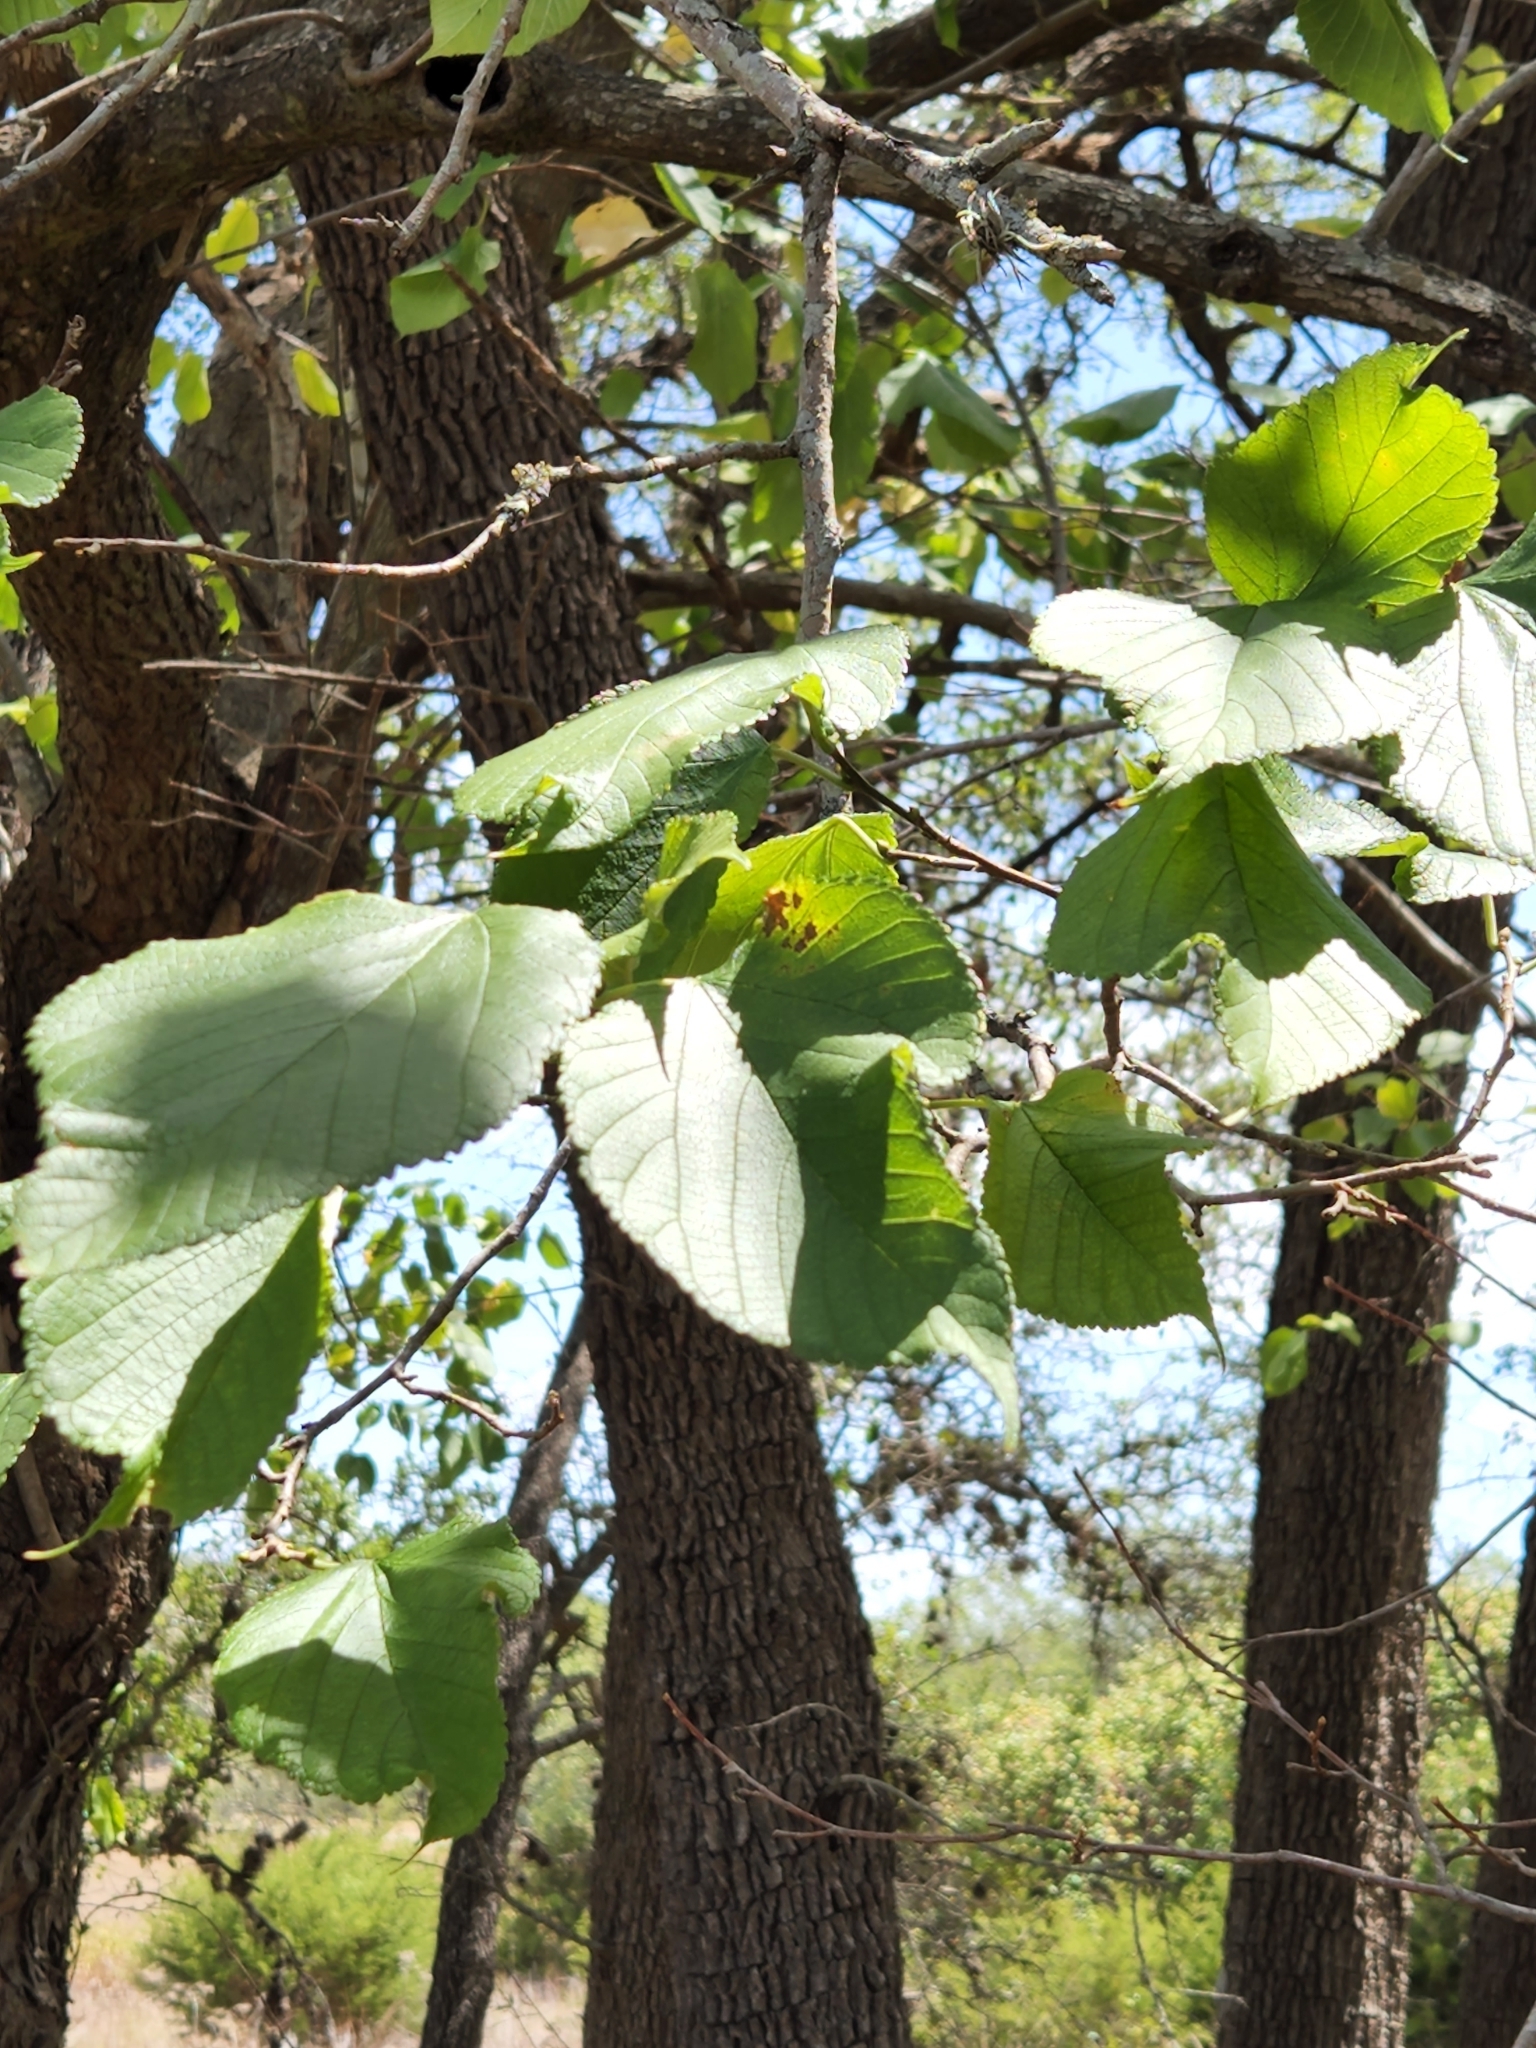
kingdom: Plantae
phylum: Tracheophyta
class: Magnoliopsida
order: Rosales
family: Moraceae
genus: Morus
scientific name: Morus rubra
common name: Red mulberry
